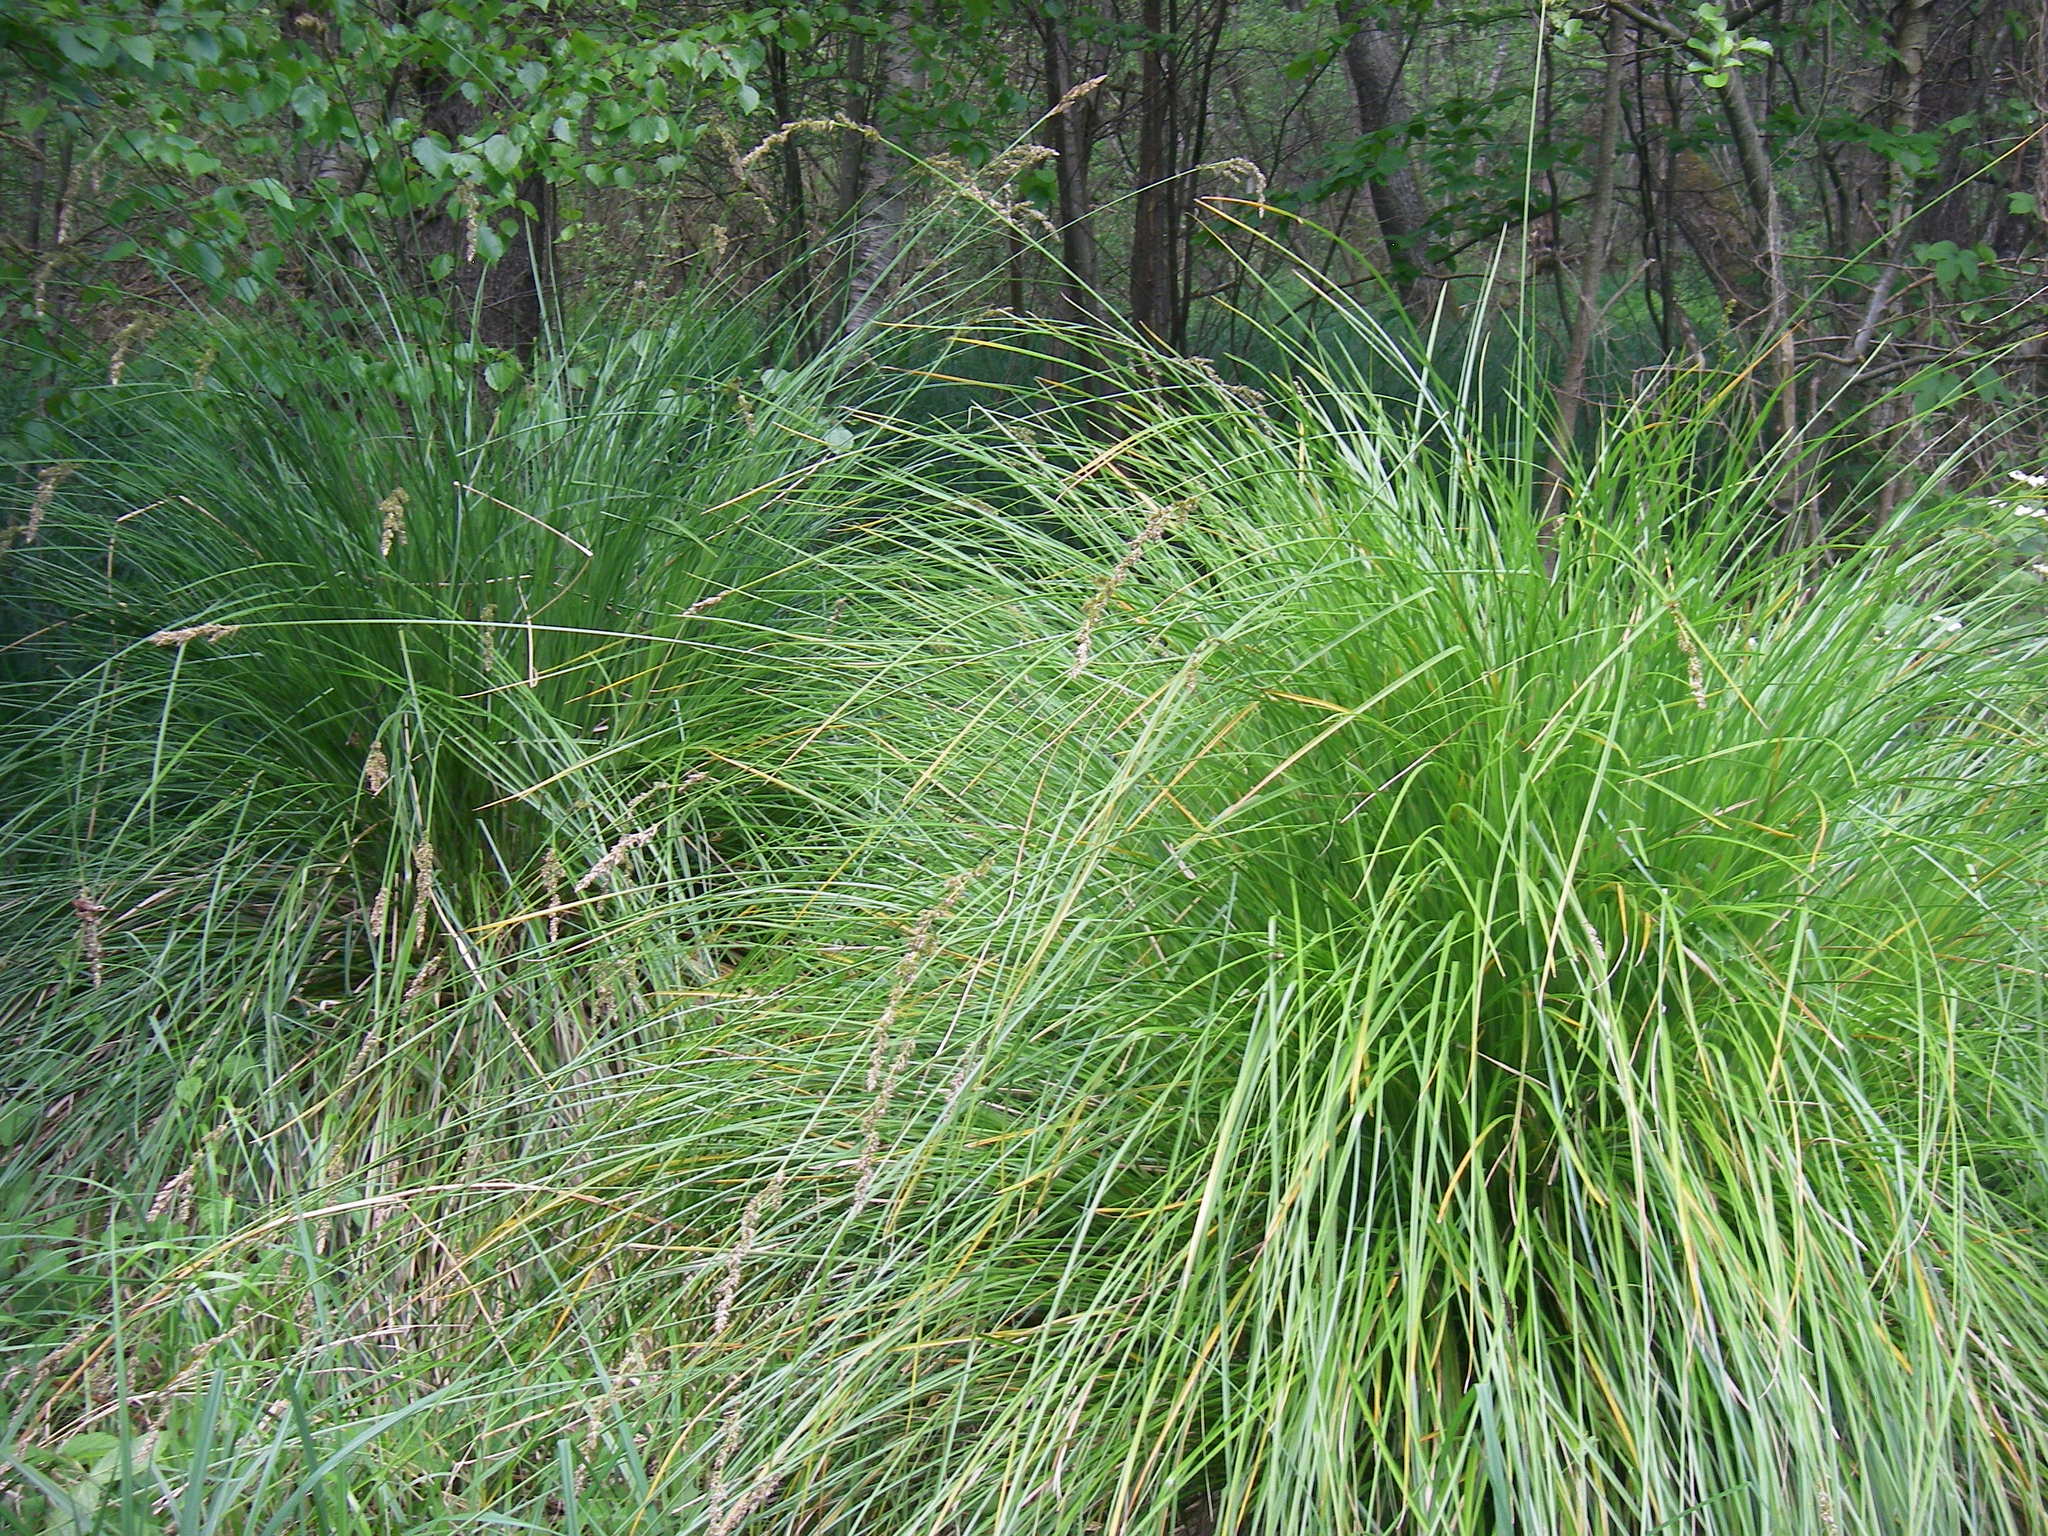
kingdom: Plantae
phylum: Tracheophyta
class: Liliopsida
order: Poales
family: Cyperaceae
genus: Carex
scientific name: Carex paniculata
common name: Greater tussock-sedge
